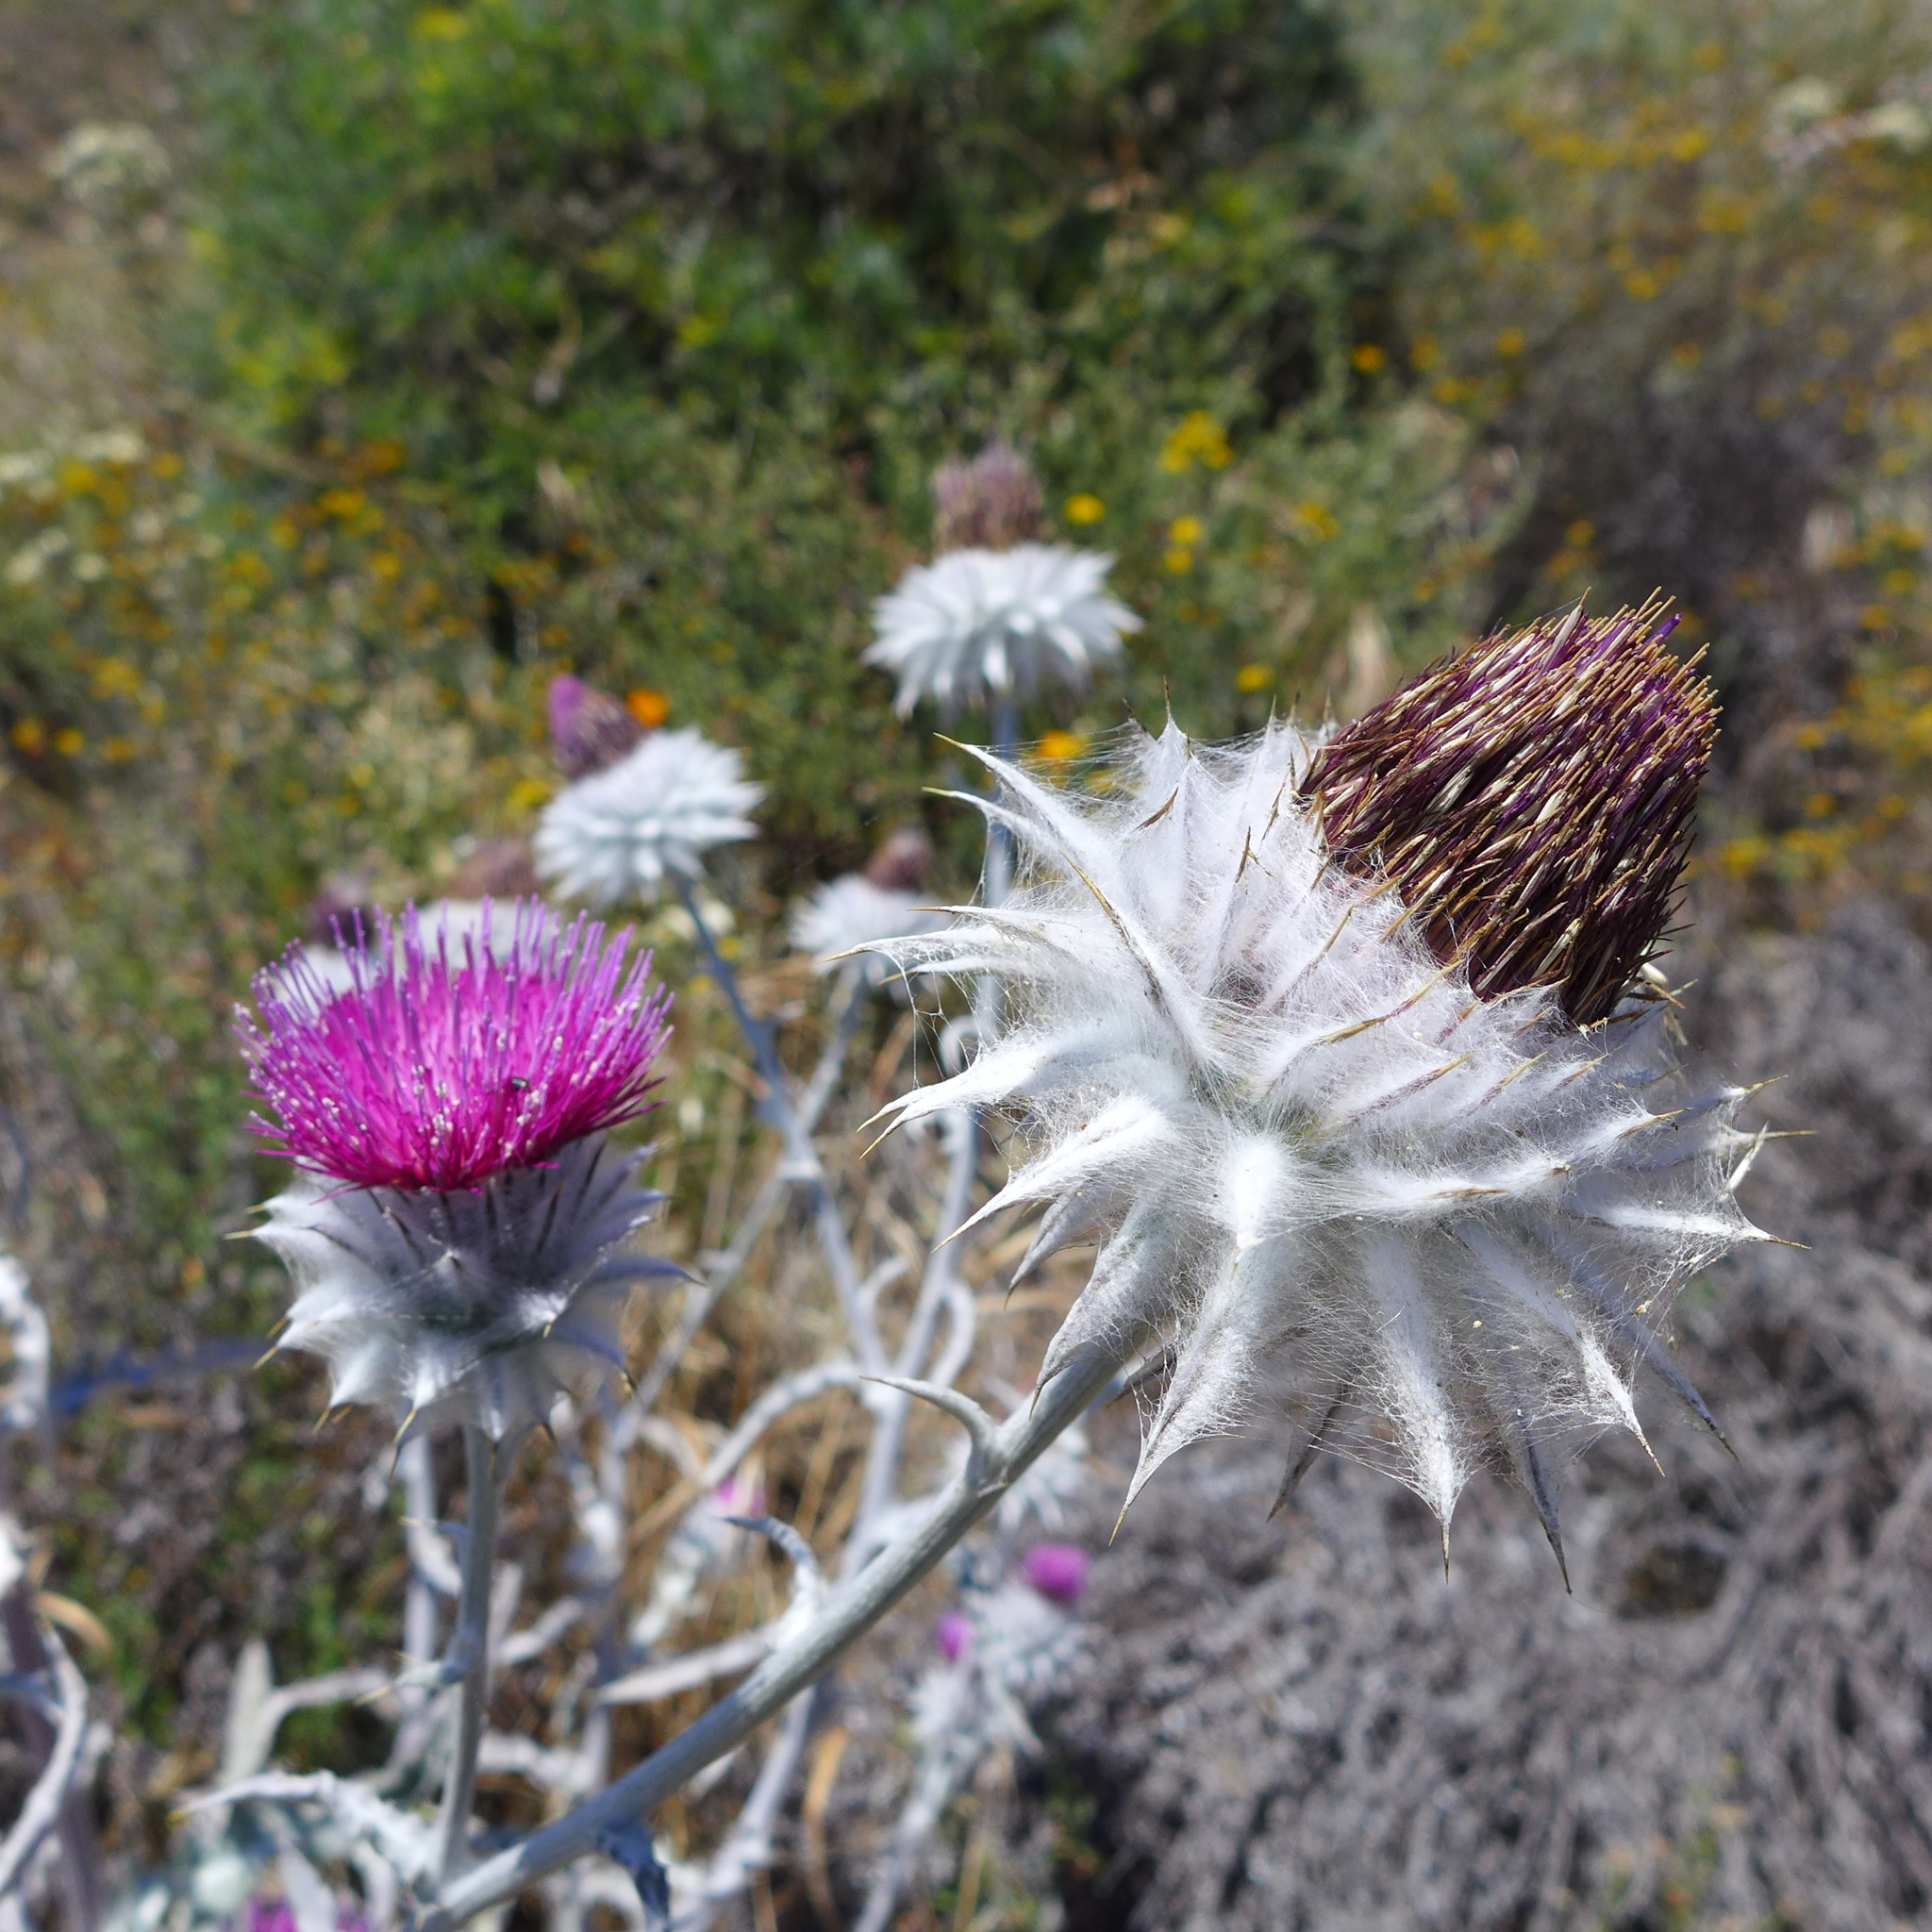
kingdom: Plantae
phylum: Tracheophyta
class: Magnoliopsida
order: Asterales
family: Asteraceae
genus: Cirsium
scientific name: Cirsium occidentale
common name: Western thistle
